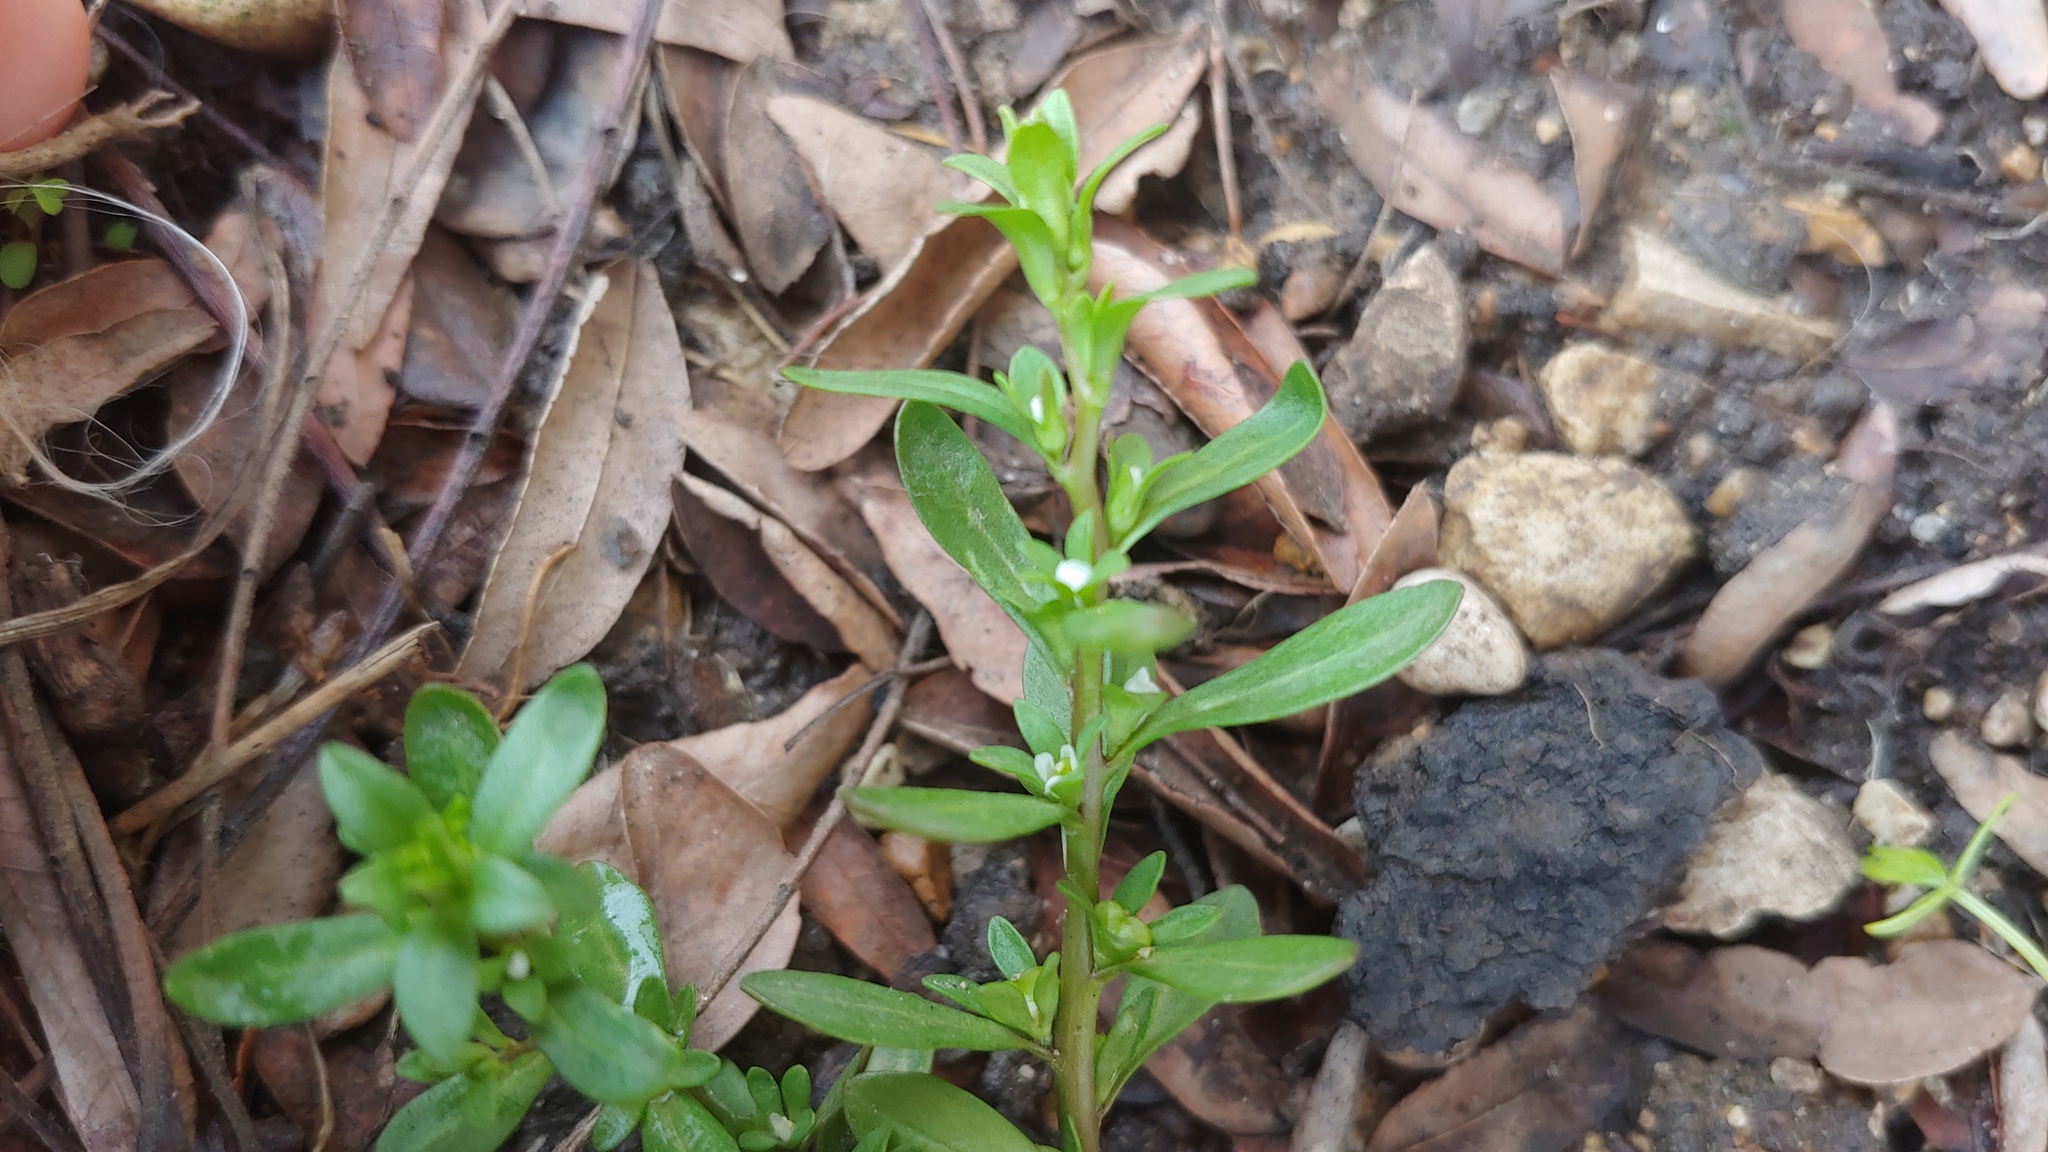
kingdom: Plantae
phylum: Tracheophyta
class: Magnoliopsida
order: Lamiales
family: Plantaginaceae
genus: Veronica
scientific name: Veronica peregrina
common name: Neckweed
